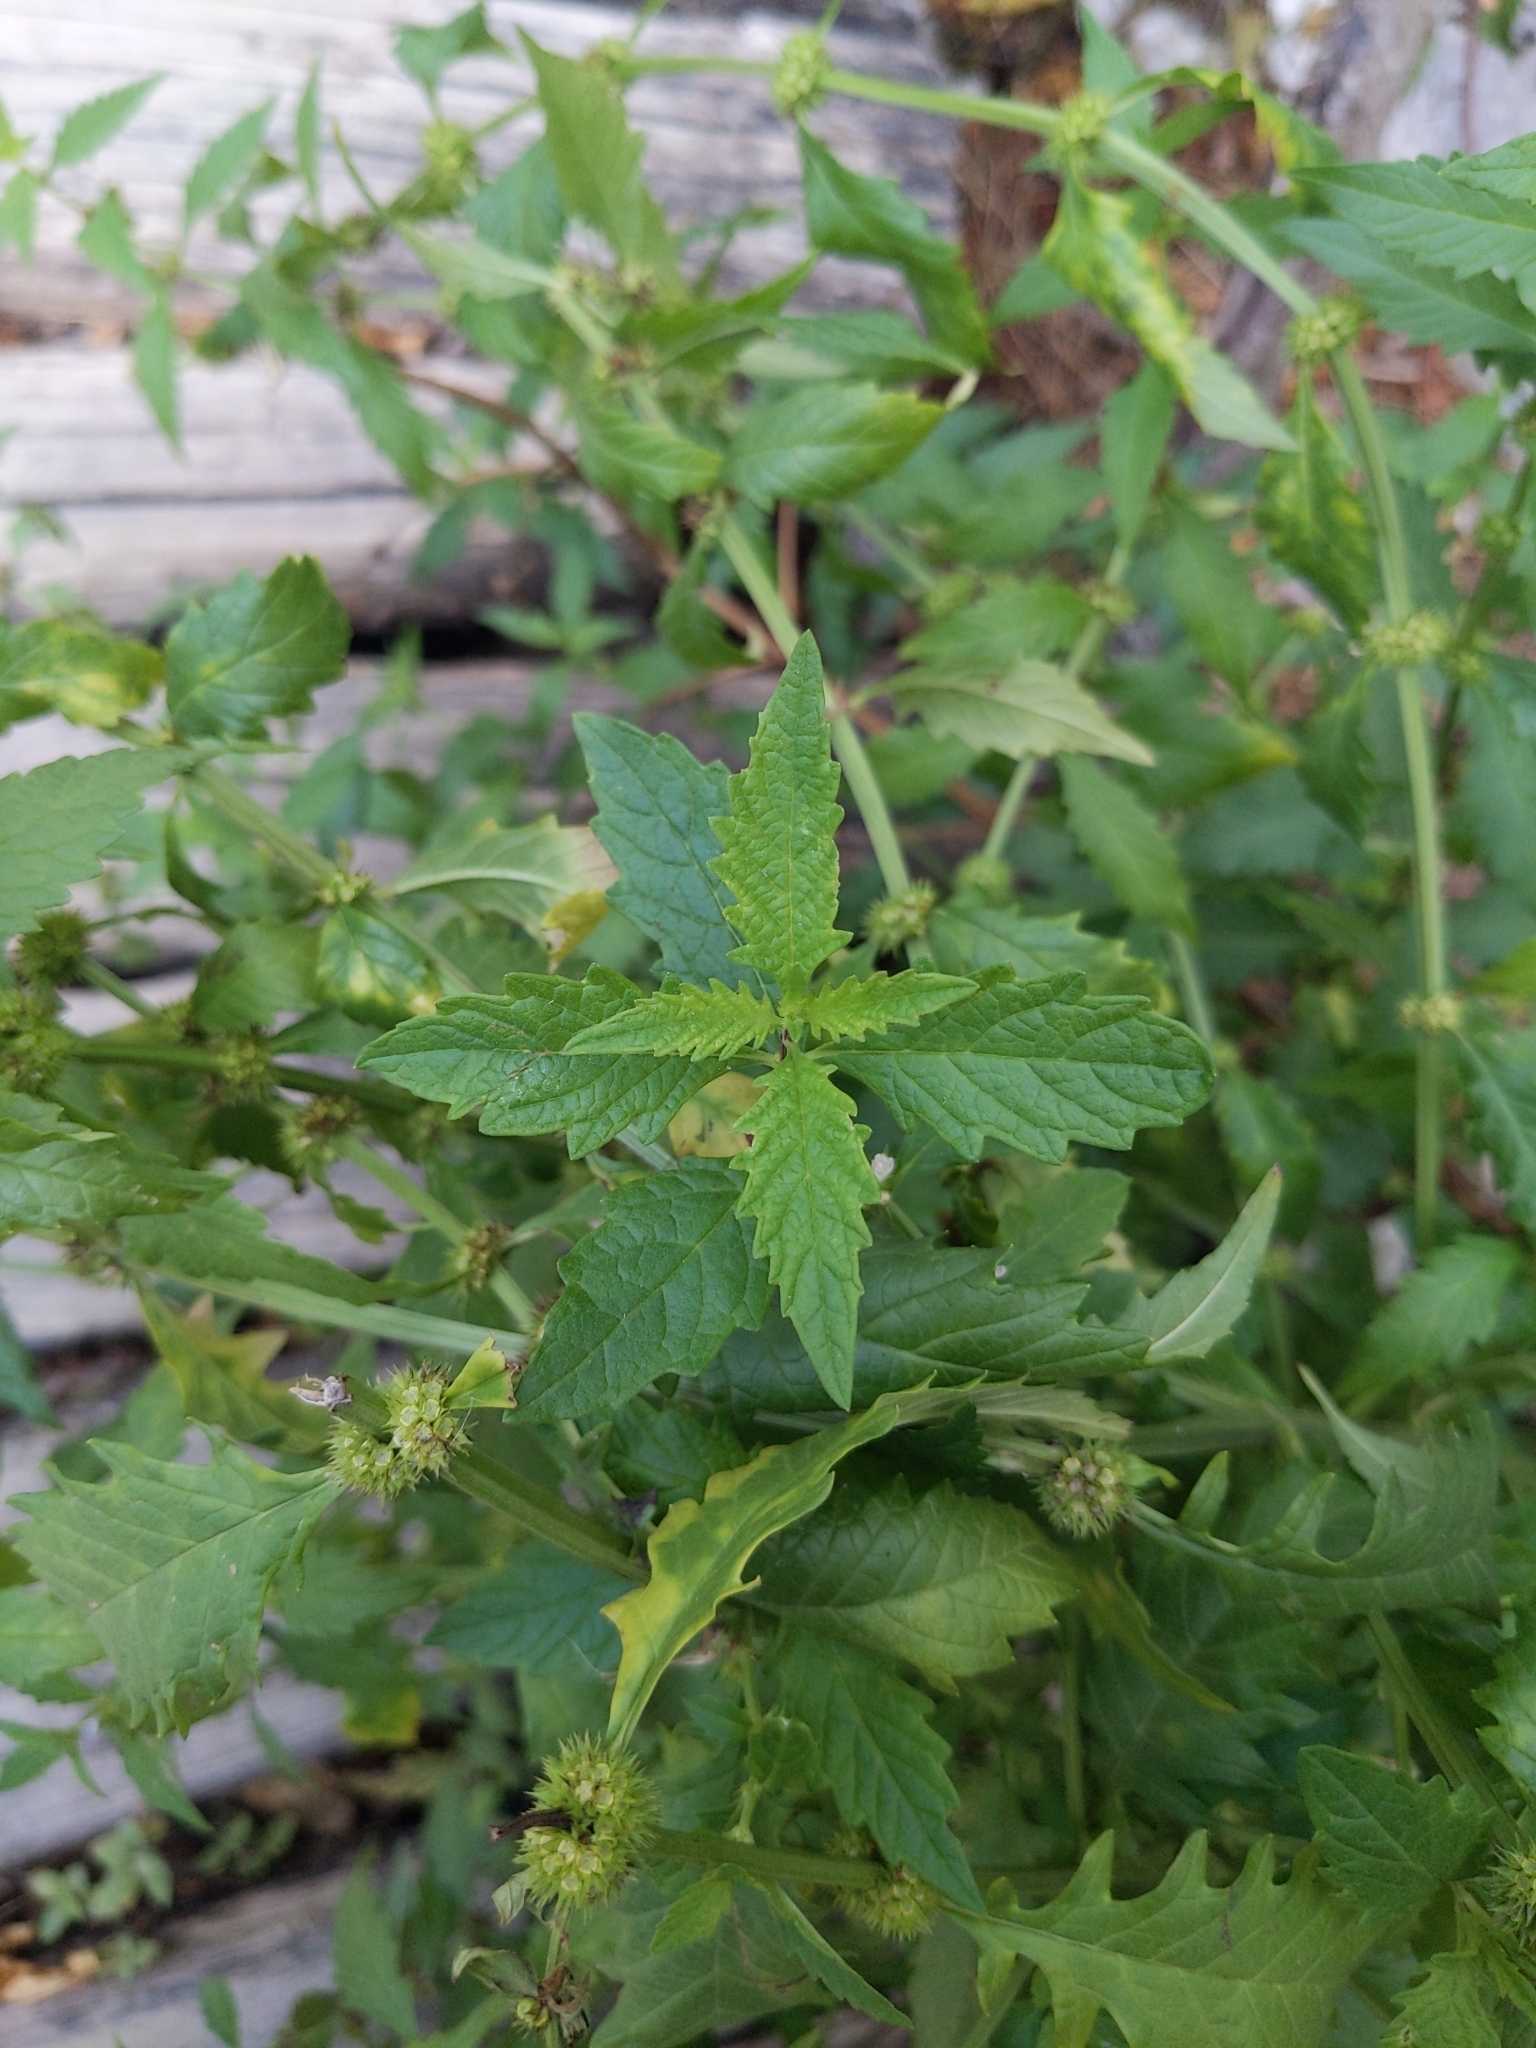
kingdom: Plantae
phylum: Tracheophyta
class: Magnoliopsida
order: Lamiales
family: Lamiaceae
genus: Lycopus
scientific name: Lycopus europaeus
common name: European bugleweed
